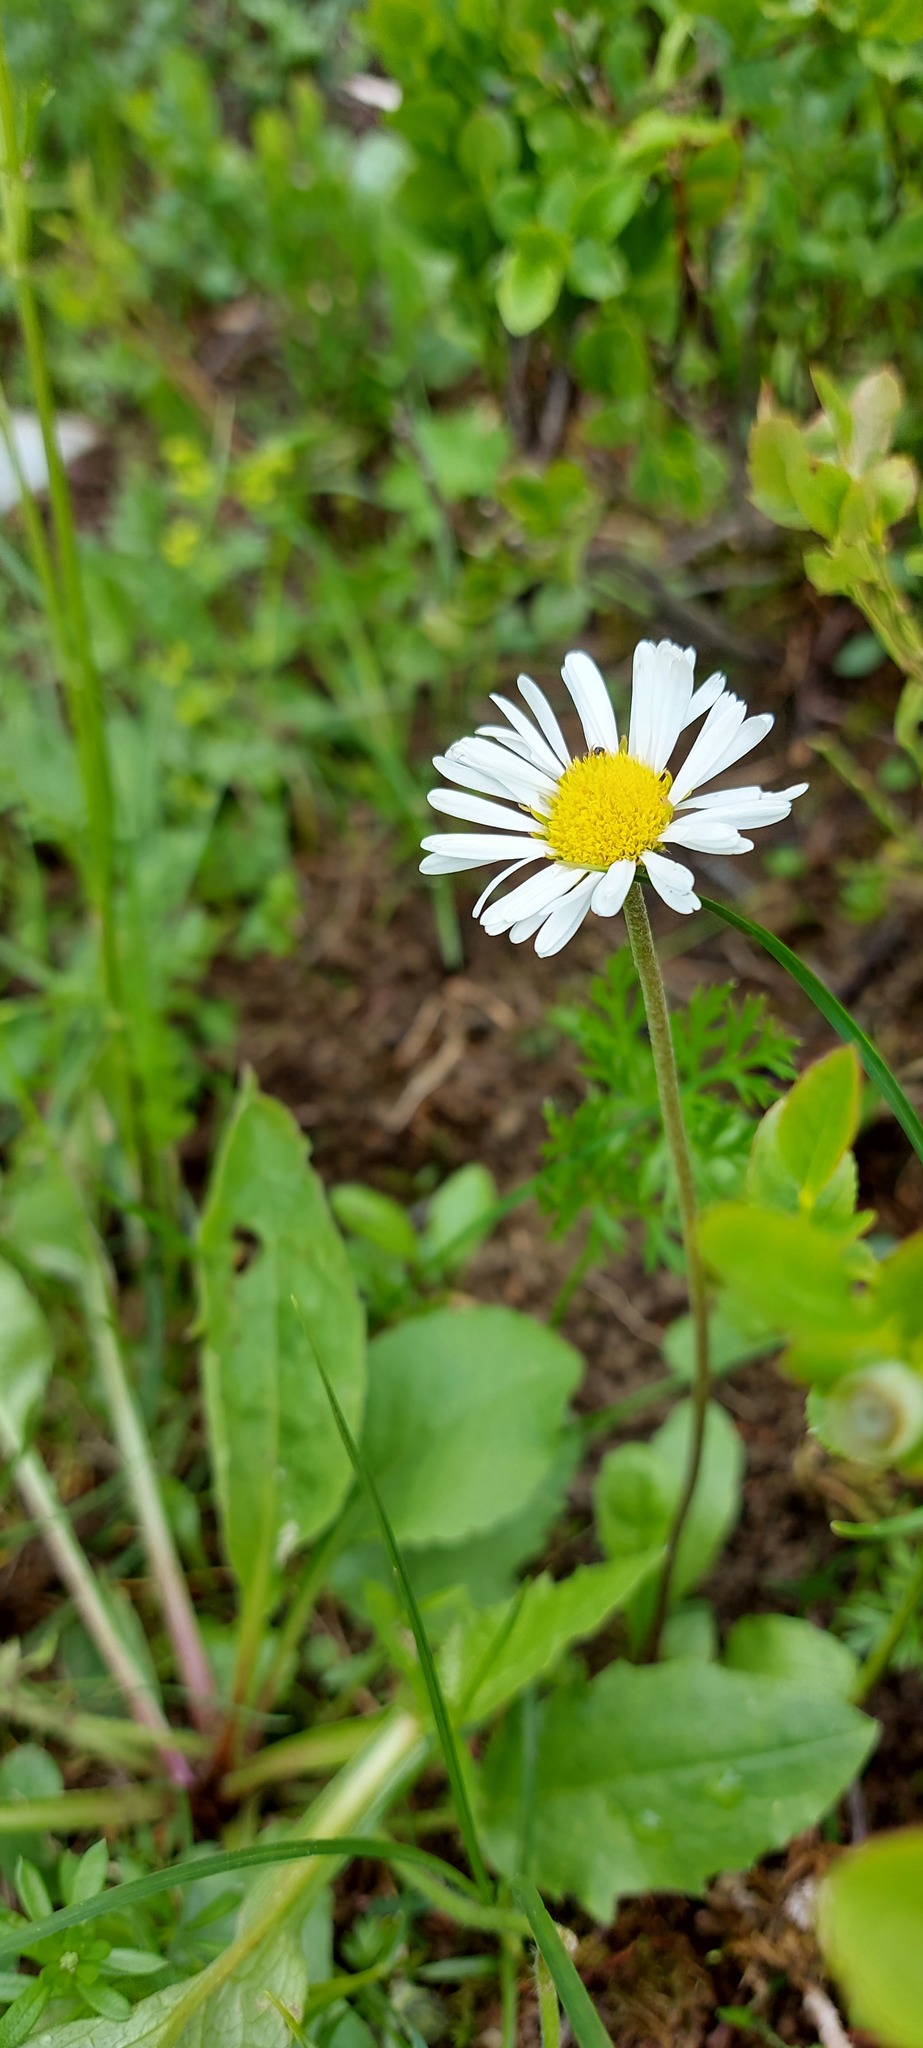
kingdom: Plantae
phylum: Tracheophyta
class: Magnoliopsida
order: Asterales
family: Asteraceae
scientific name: Asteraceae
